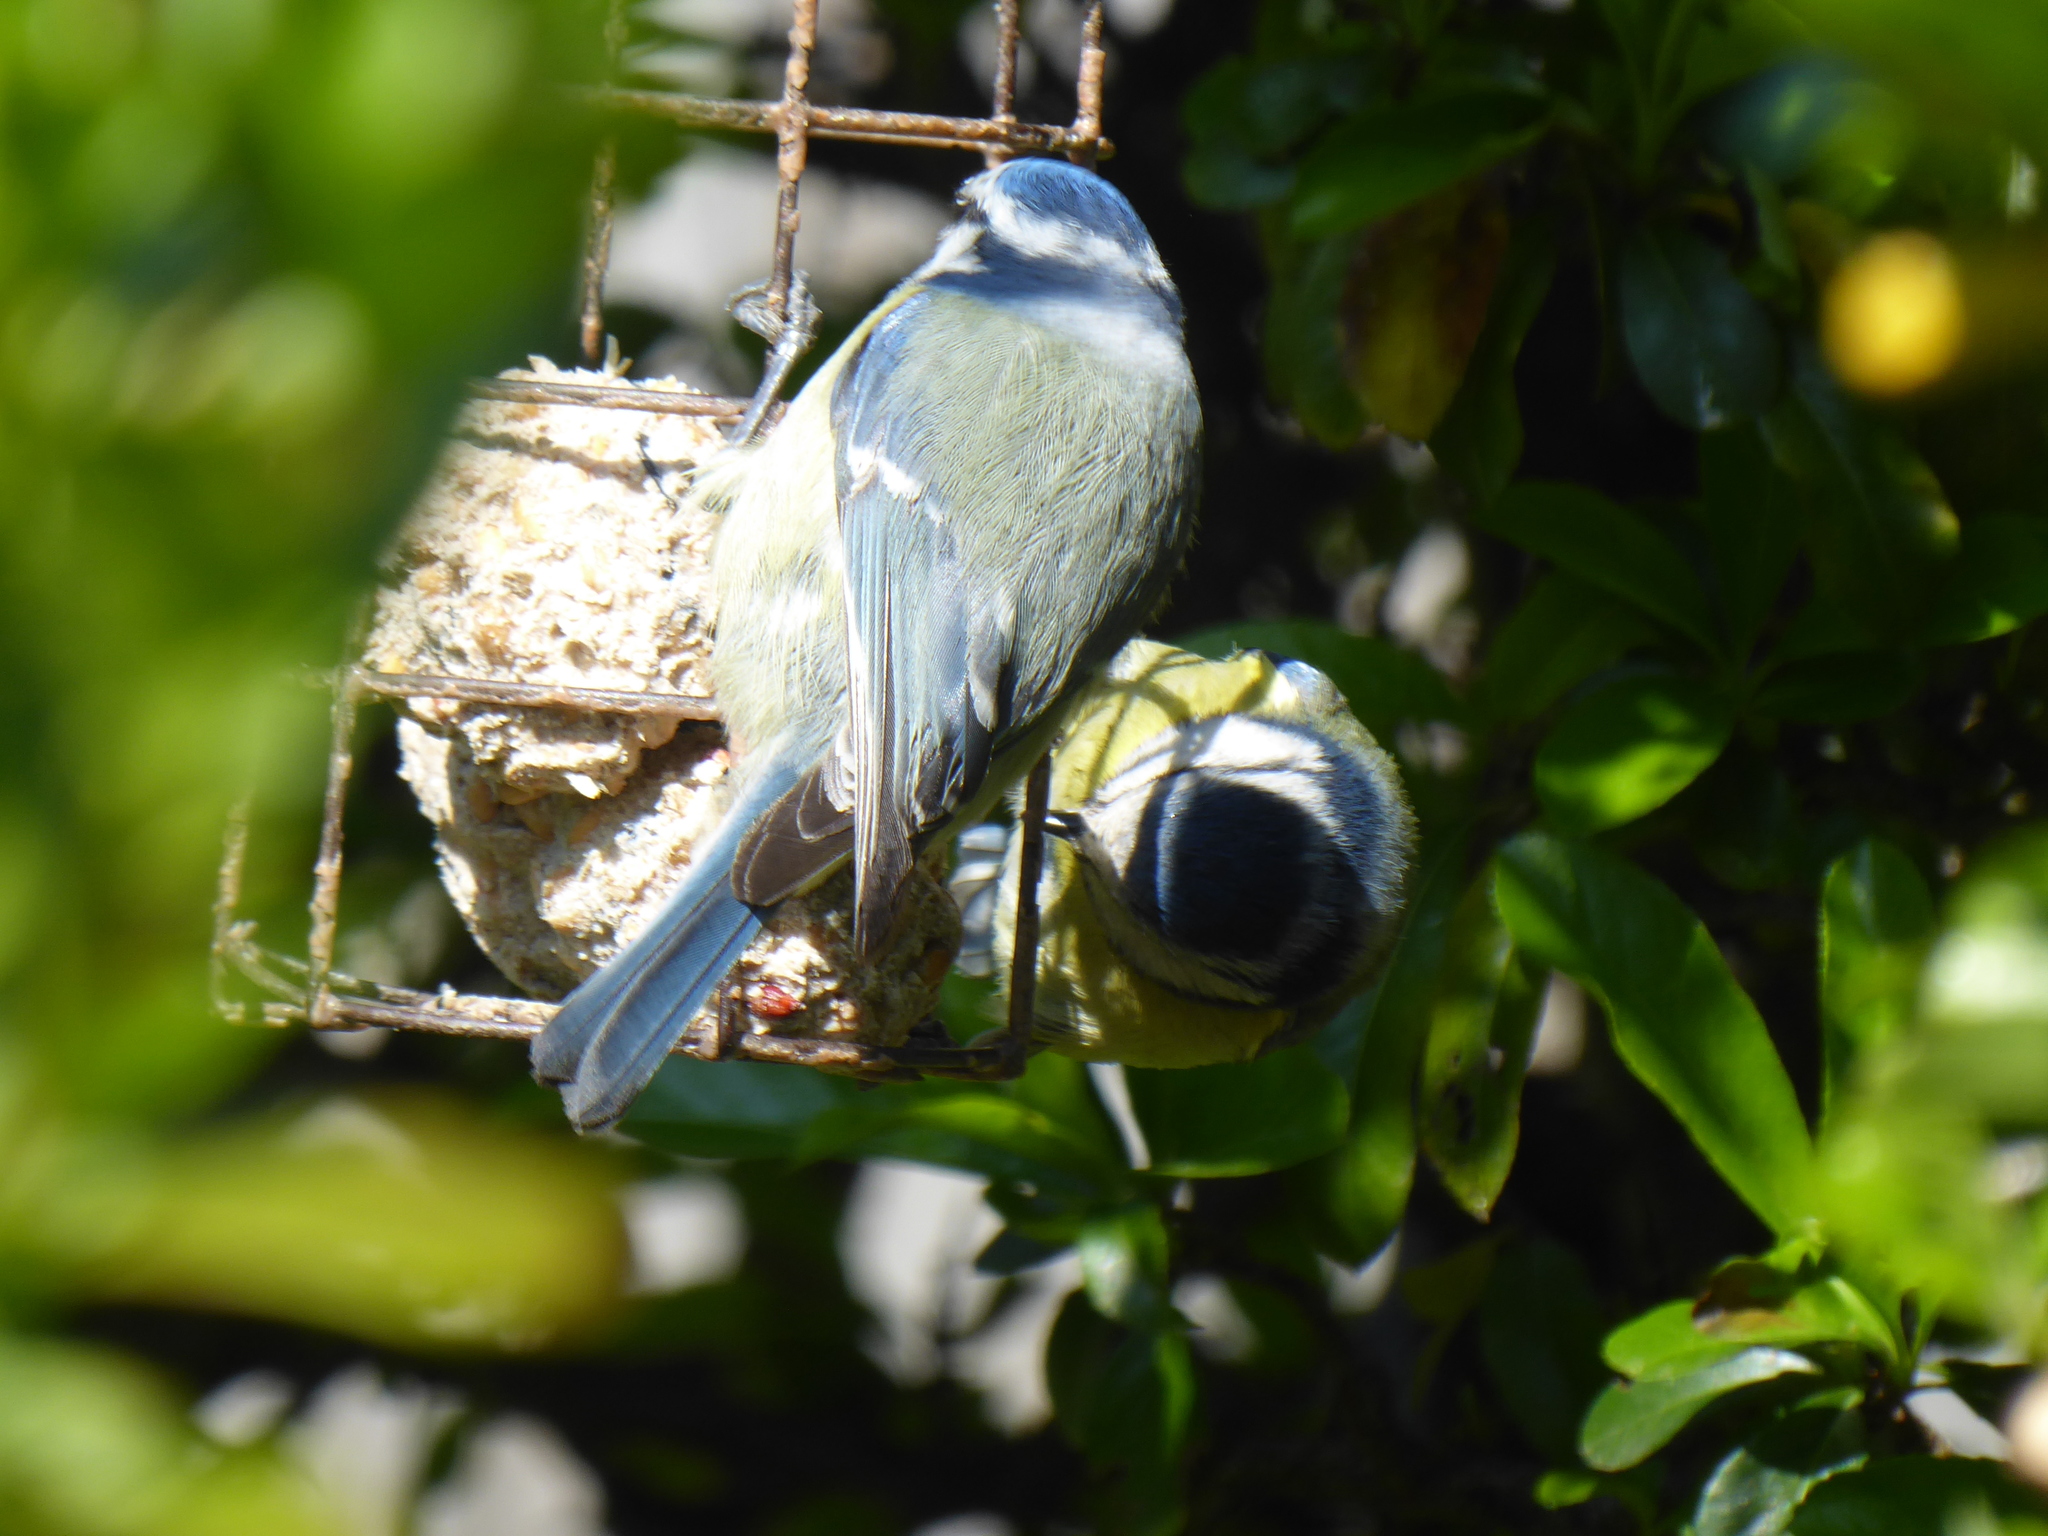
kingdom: Animalia
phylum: Chordata
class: Aves
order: Passeriformes
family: Paridae
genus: Cyanistes
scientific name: Cyanistes caeruleus
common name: Eurasian blue tit
